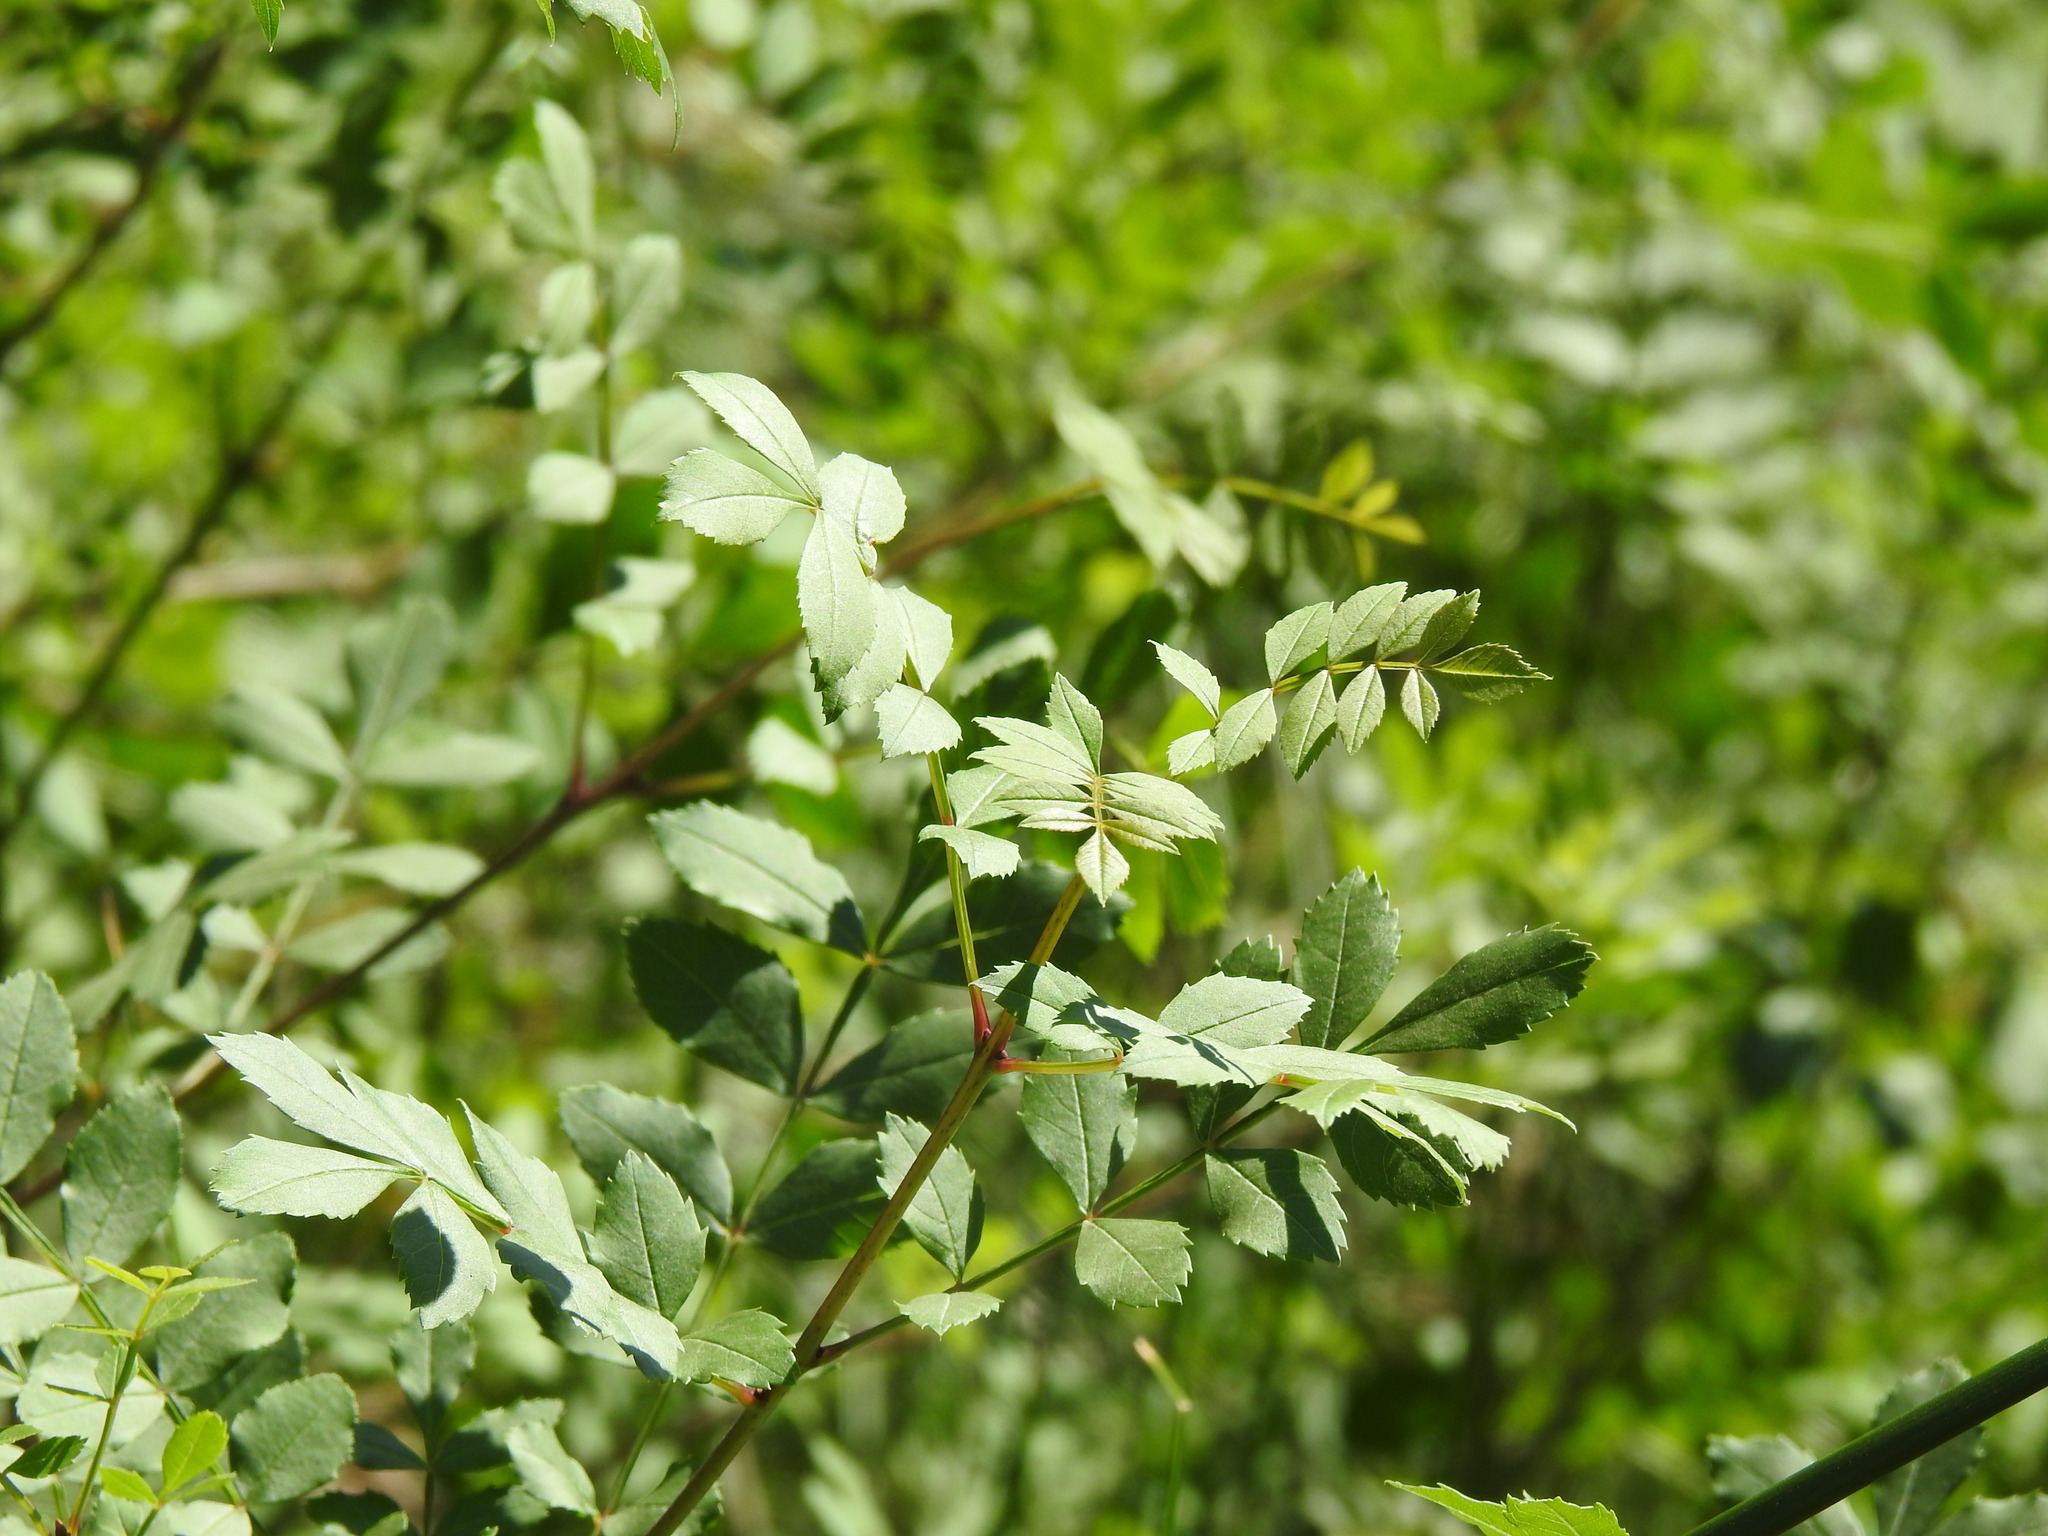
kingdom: Plantae
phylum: Tracheophyta
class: Magnoliopsida
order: Lamiales
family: Oleaceae
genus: Fraxinus
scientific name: Fraxinus angustifolia
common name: Narrow-leafed ash
